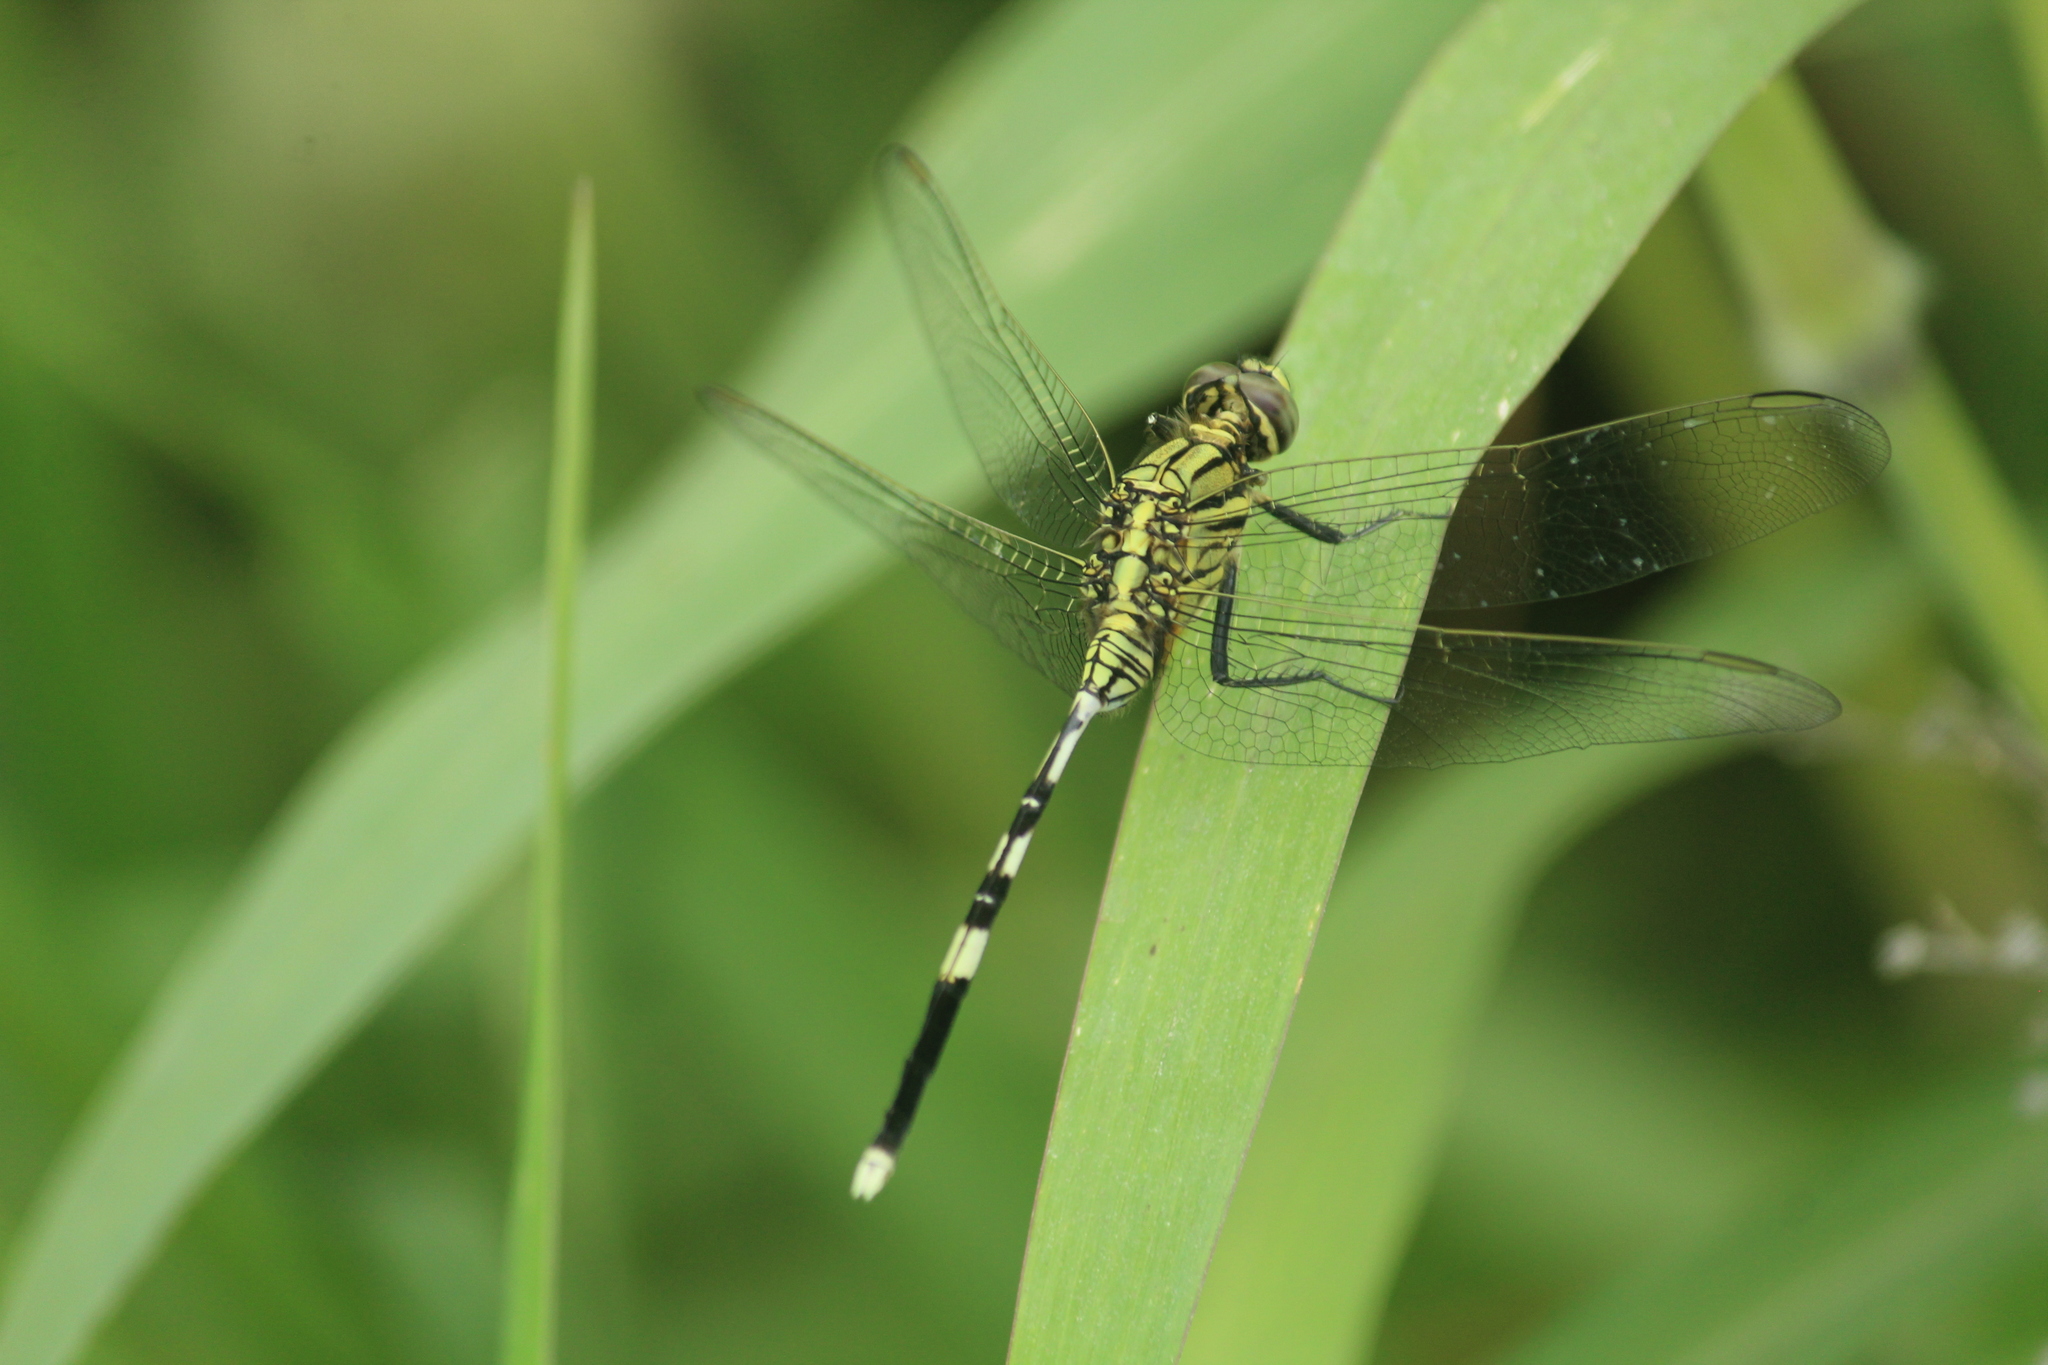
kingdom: Animalia
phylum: Arthropoda
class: Insecta
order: Odonata
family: Libellulidae
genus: Orthetrum
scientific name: Orthetrum sabina
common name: Slender skimmer
